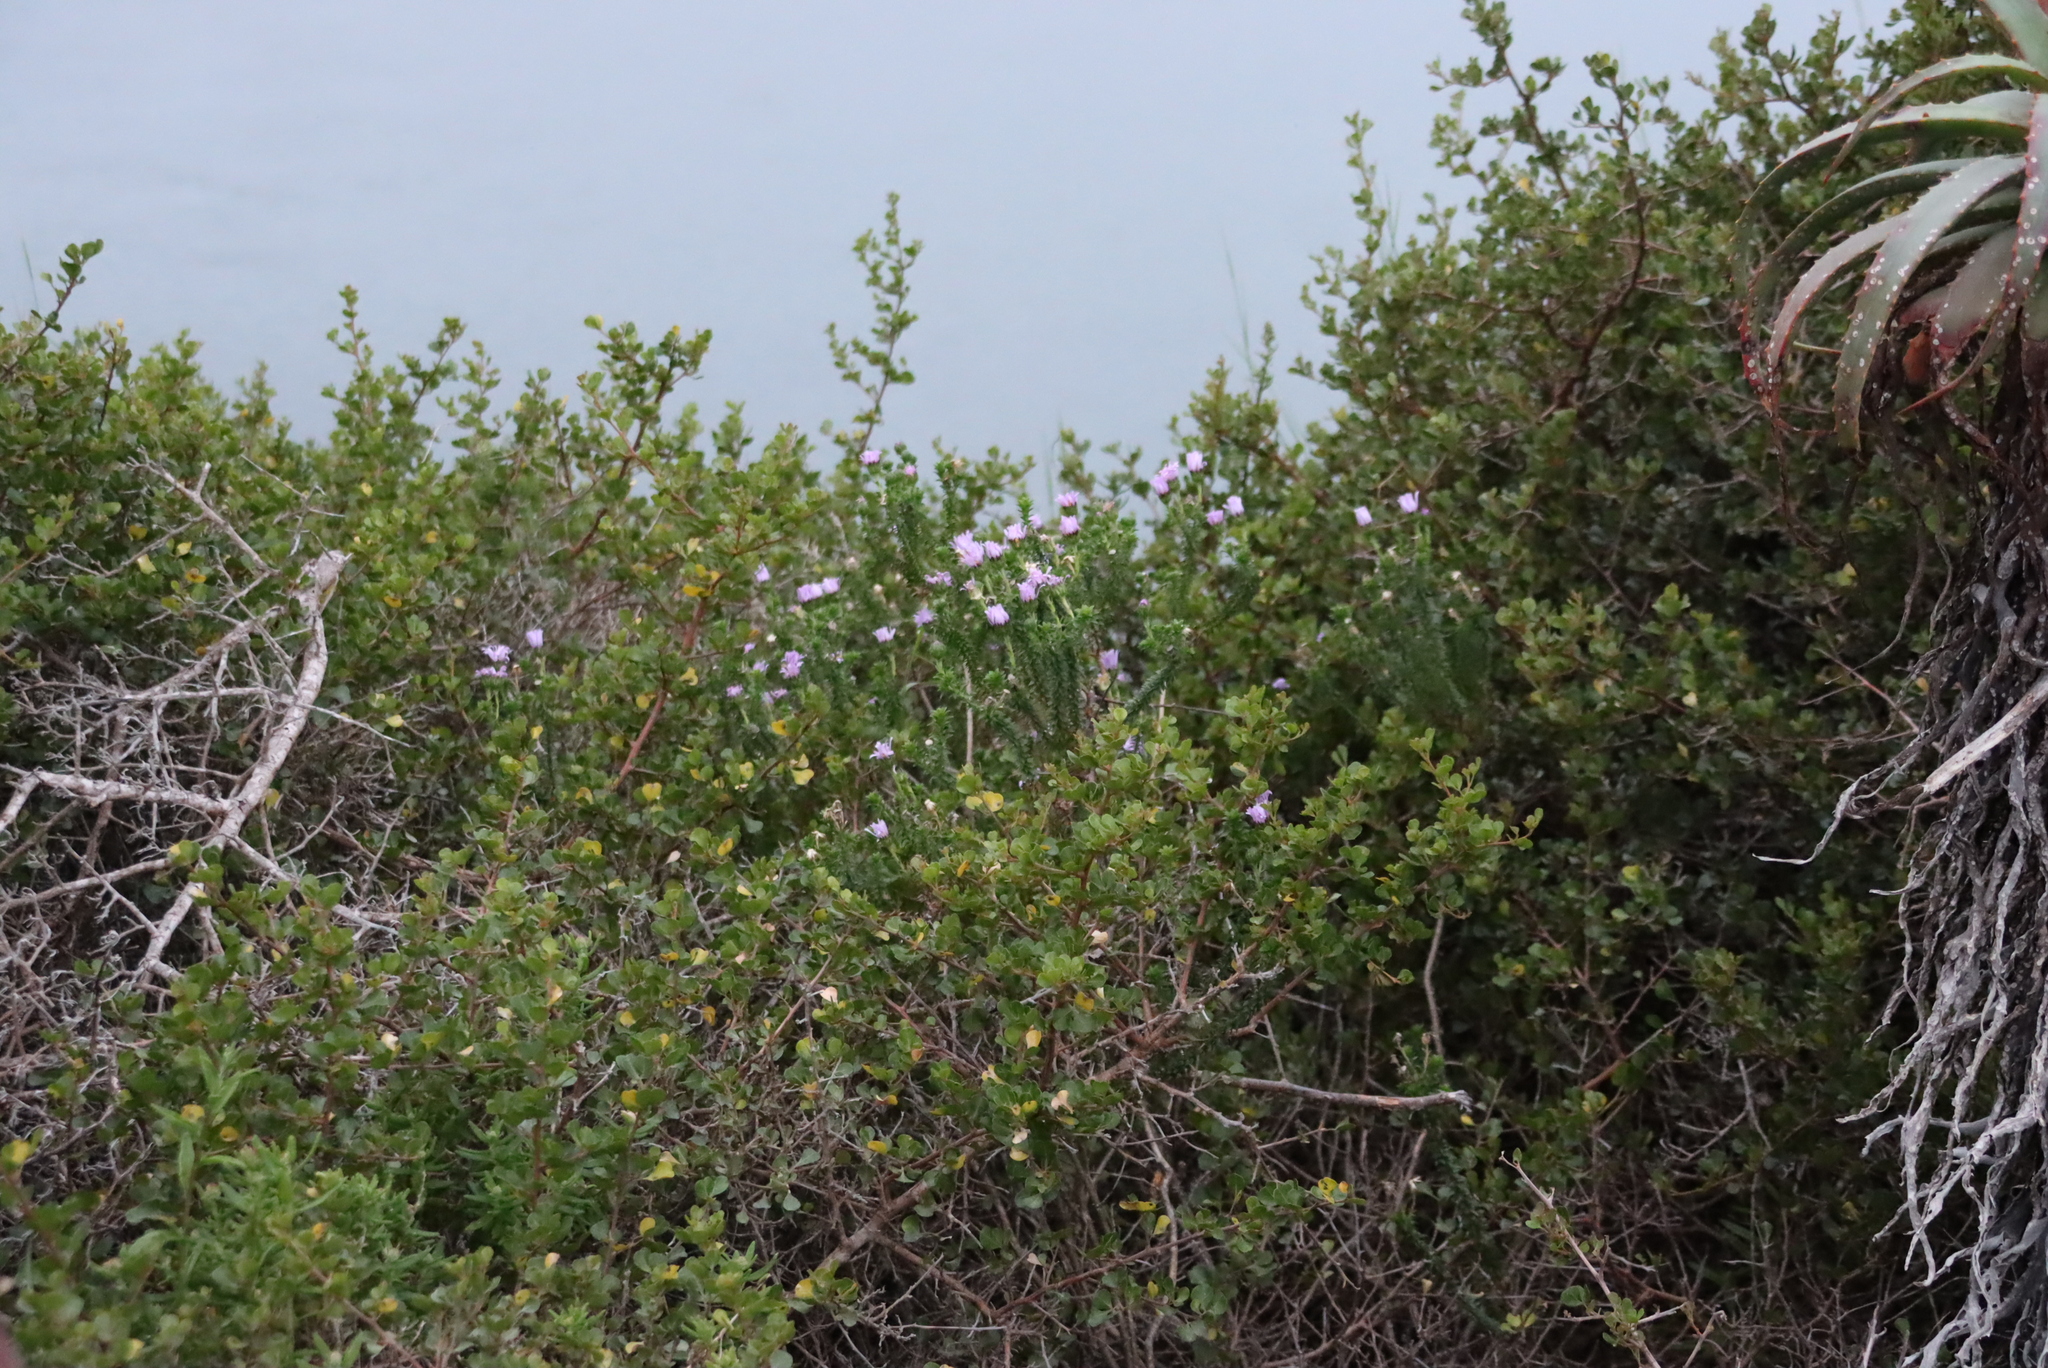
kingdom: Plantae
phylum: Tracheophyta
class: Magnoliopsida
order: Asterales
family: Asteraceae
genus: Felicia
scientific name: Felicia echinata
